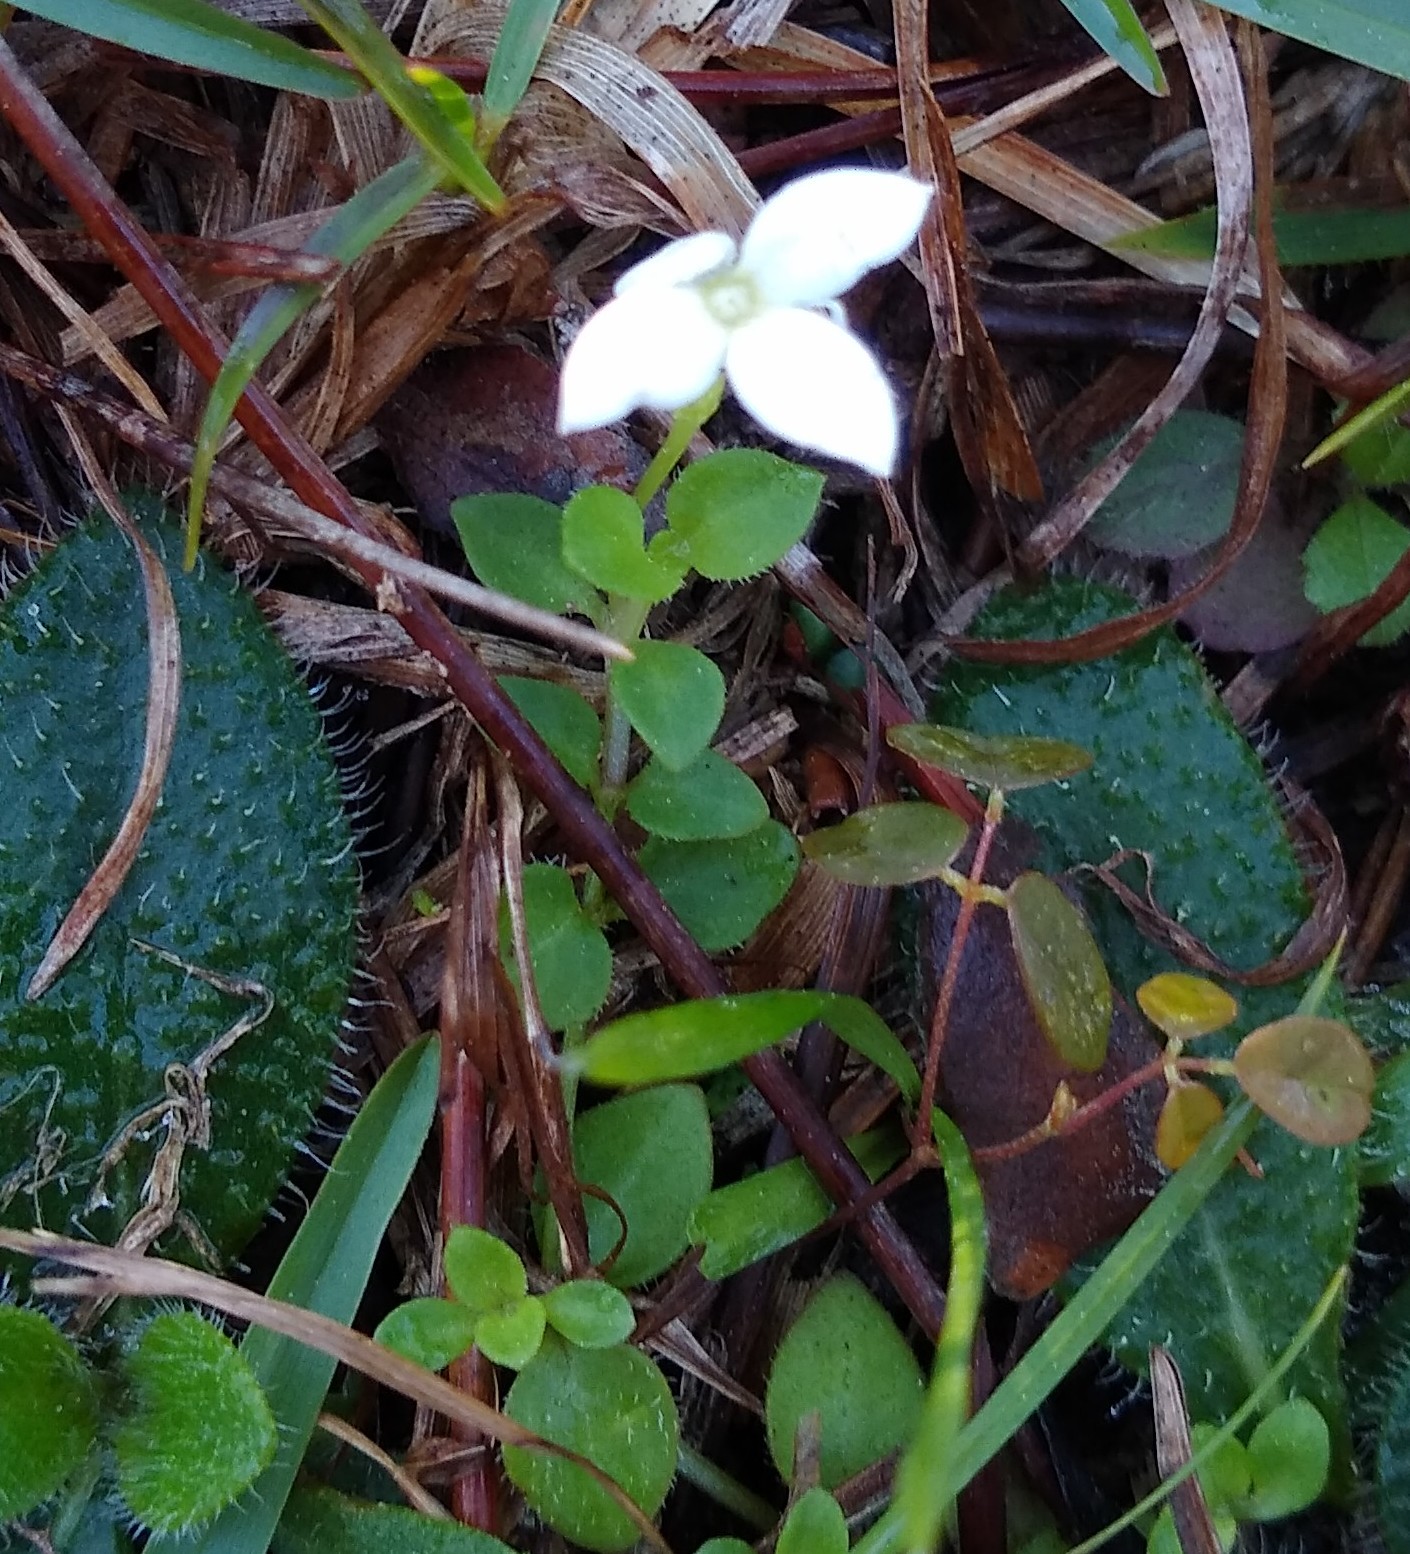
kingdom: Plantae
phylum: Tracheophyta
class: Magnoliopsida
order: Gentianales
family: Rubiaceae
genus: Houstonia
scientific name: Houstonia procumbens
